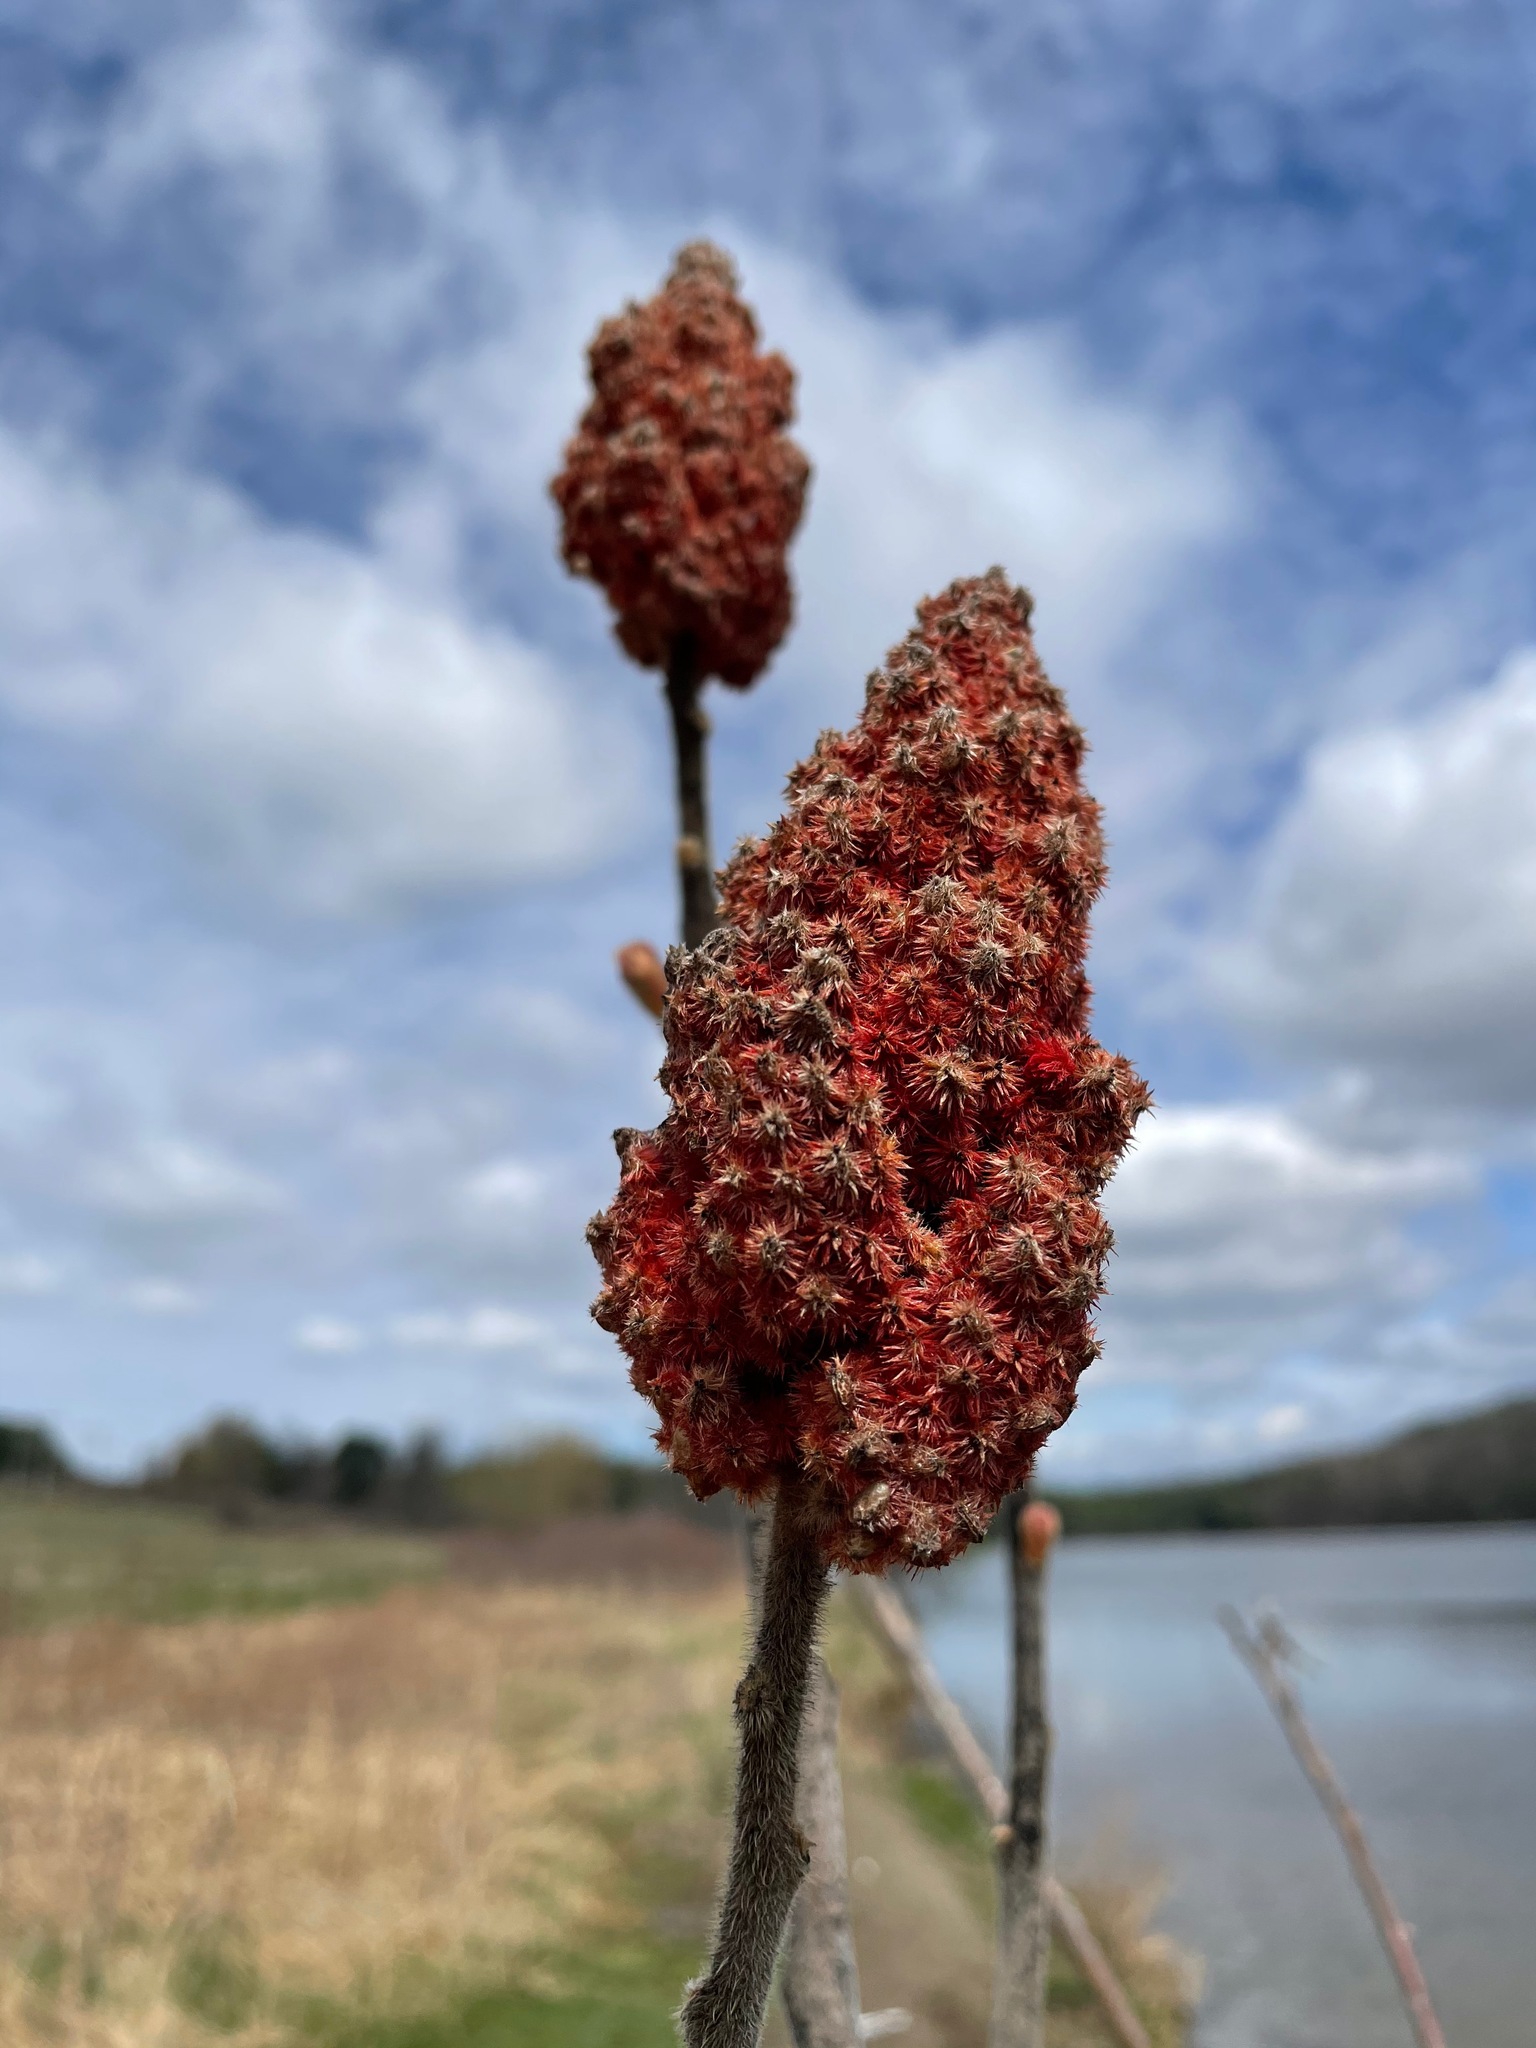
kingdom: Plantae
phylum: Tracheophyta
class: Magnoliopsida
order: Sapindales
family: Anacardiaceae
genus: Rhus
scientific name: Rhus typhina
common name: Staghorn sumac
